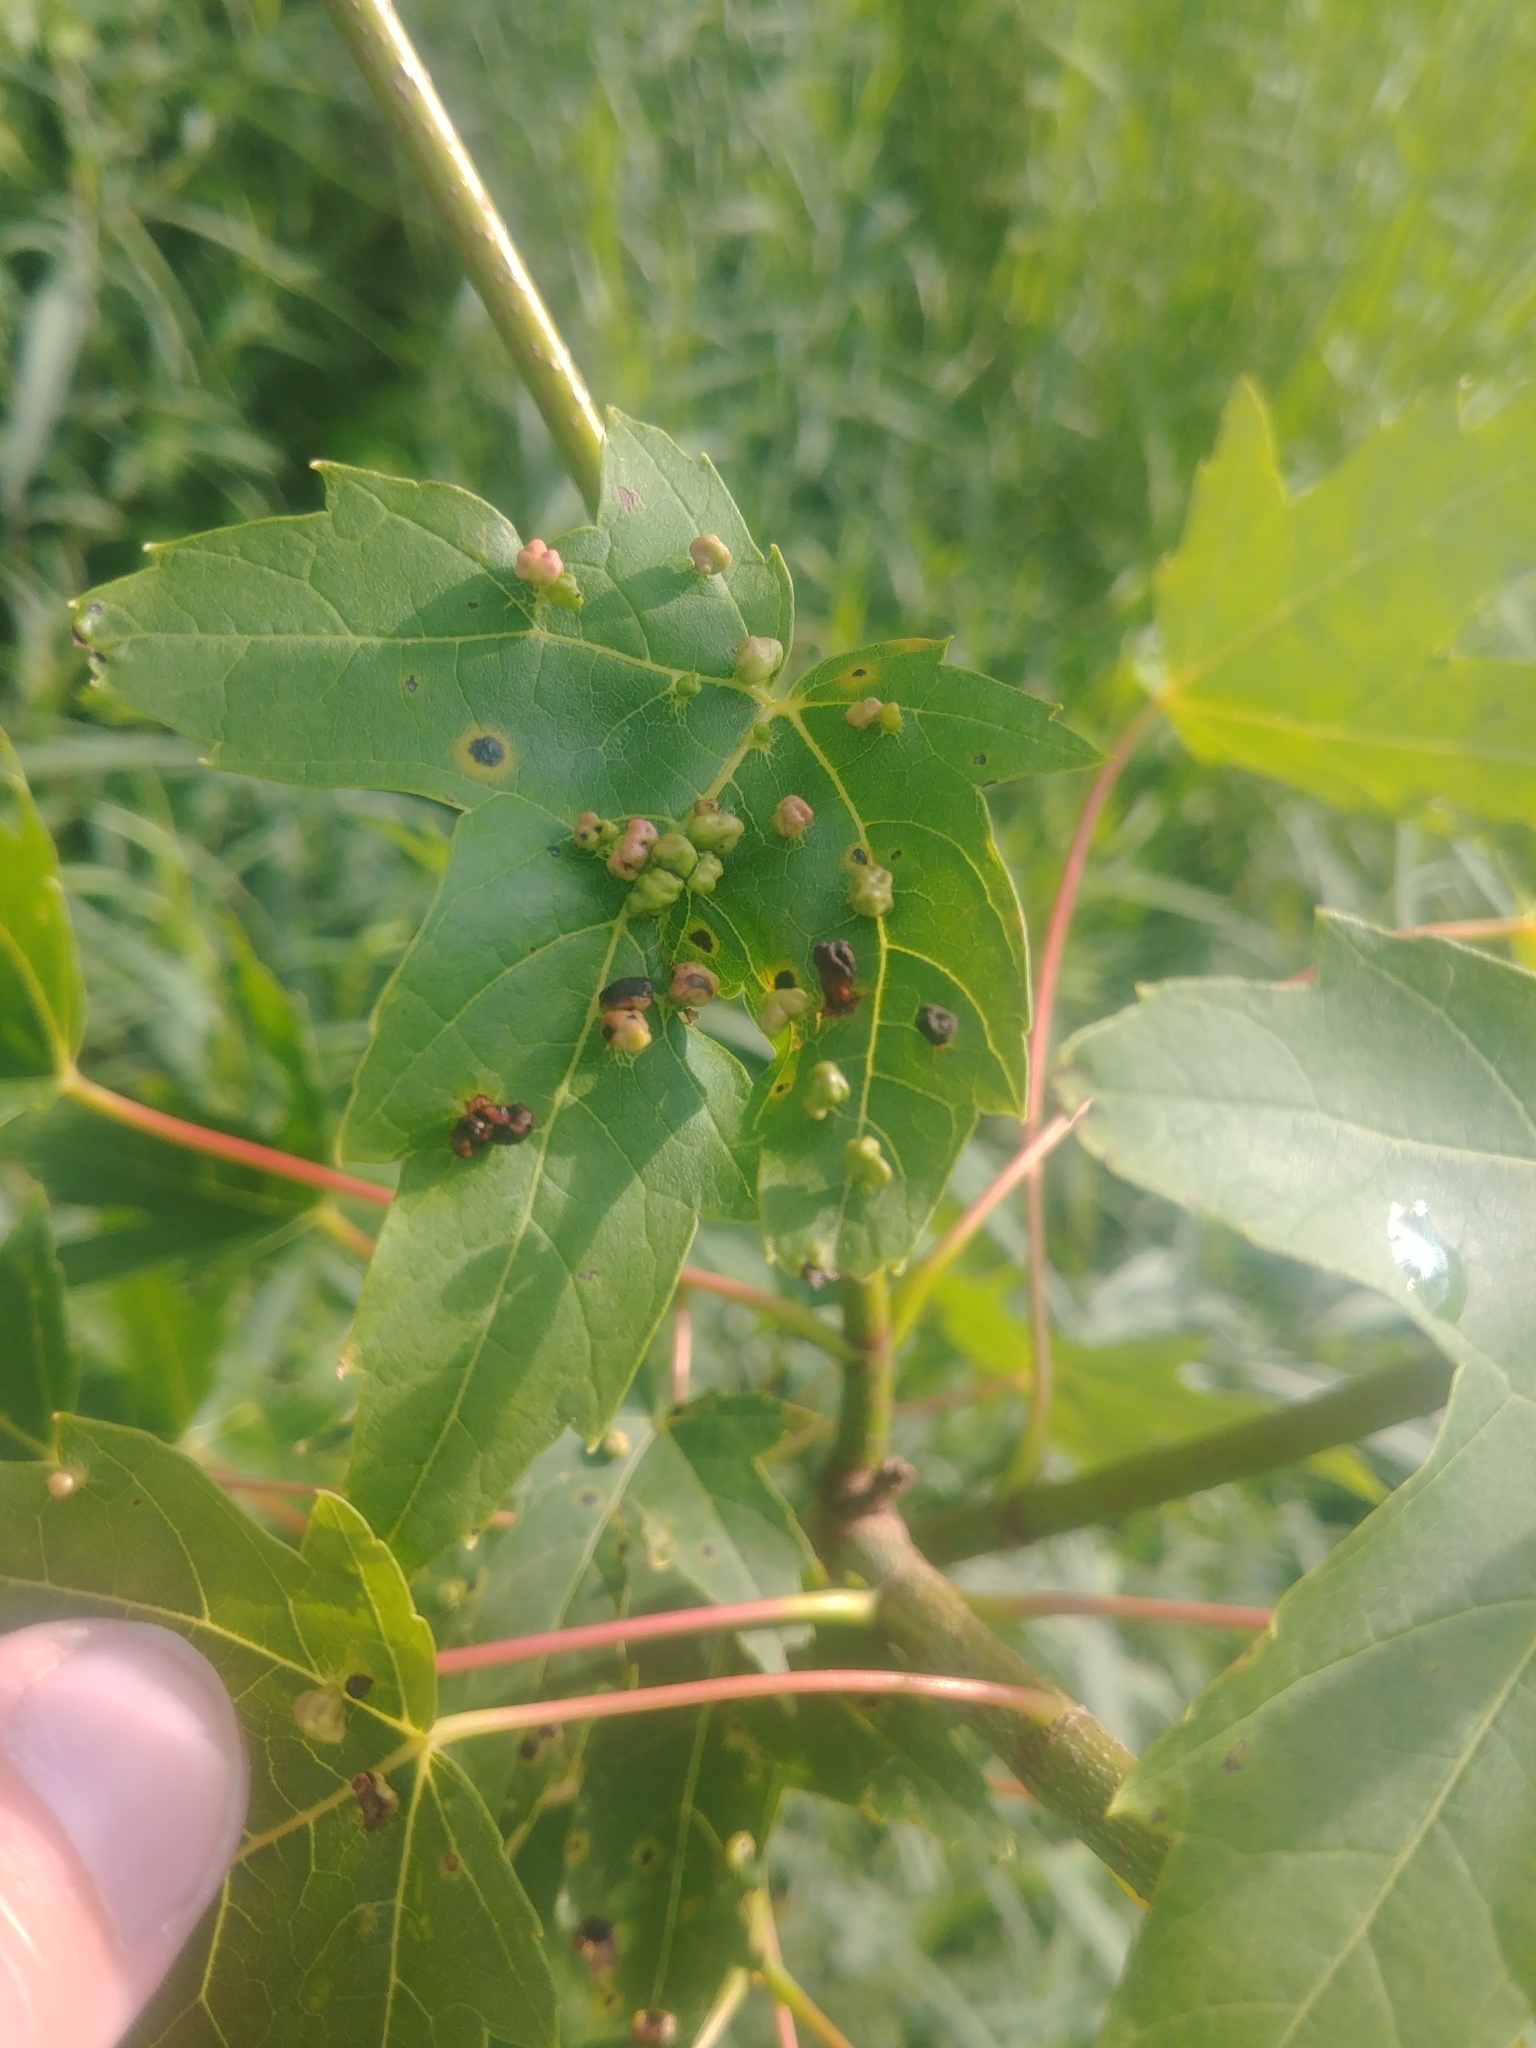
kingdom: Animalia
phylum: Arthropoda
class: Arachnida
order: Trombidiformes
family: Eriophyidae
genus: Vasates
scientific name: Vasates quadripedes
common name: Maple bladder gall mite
